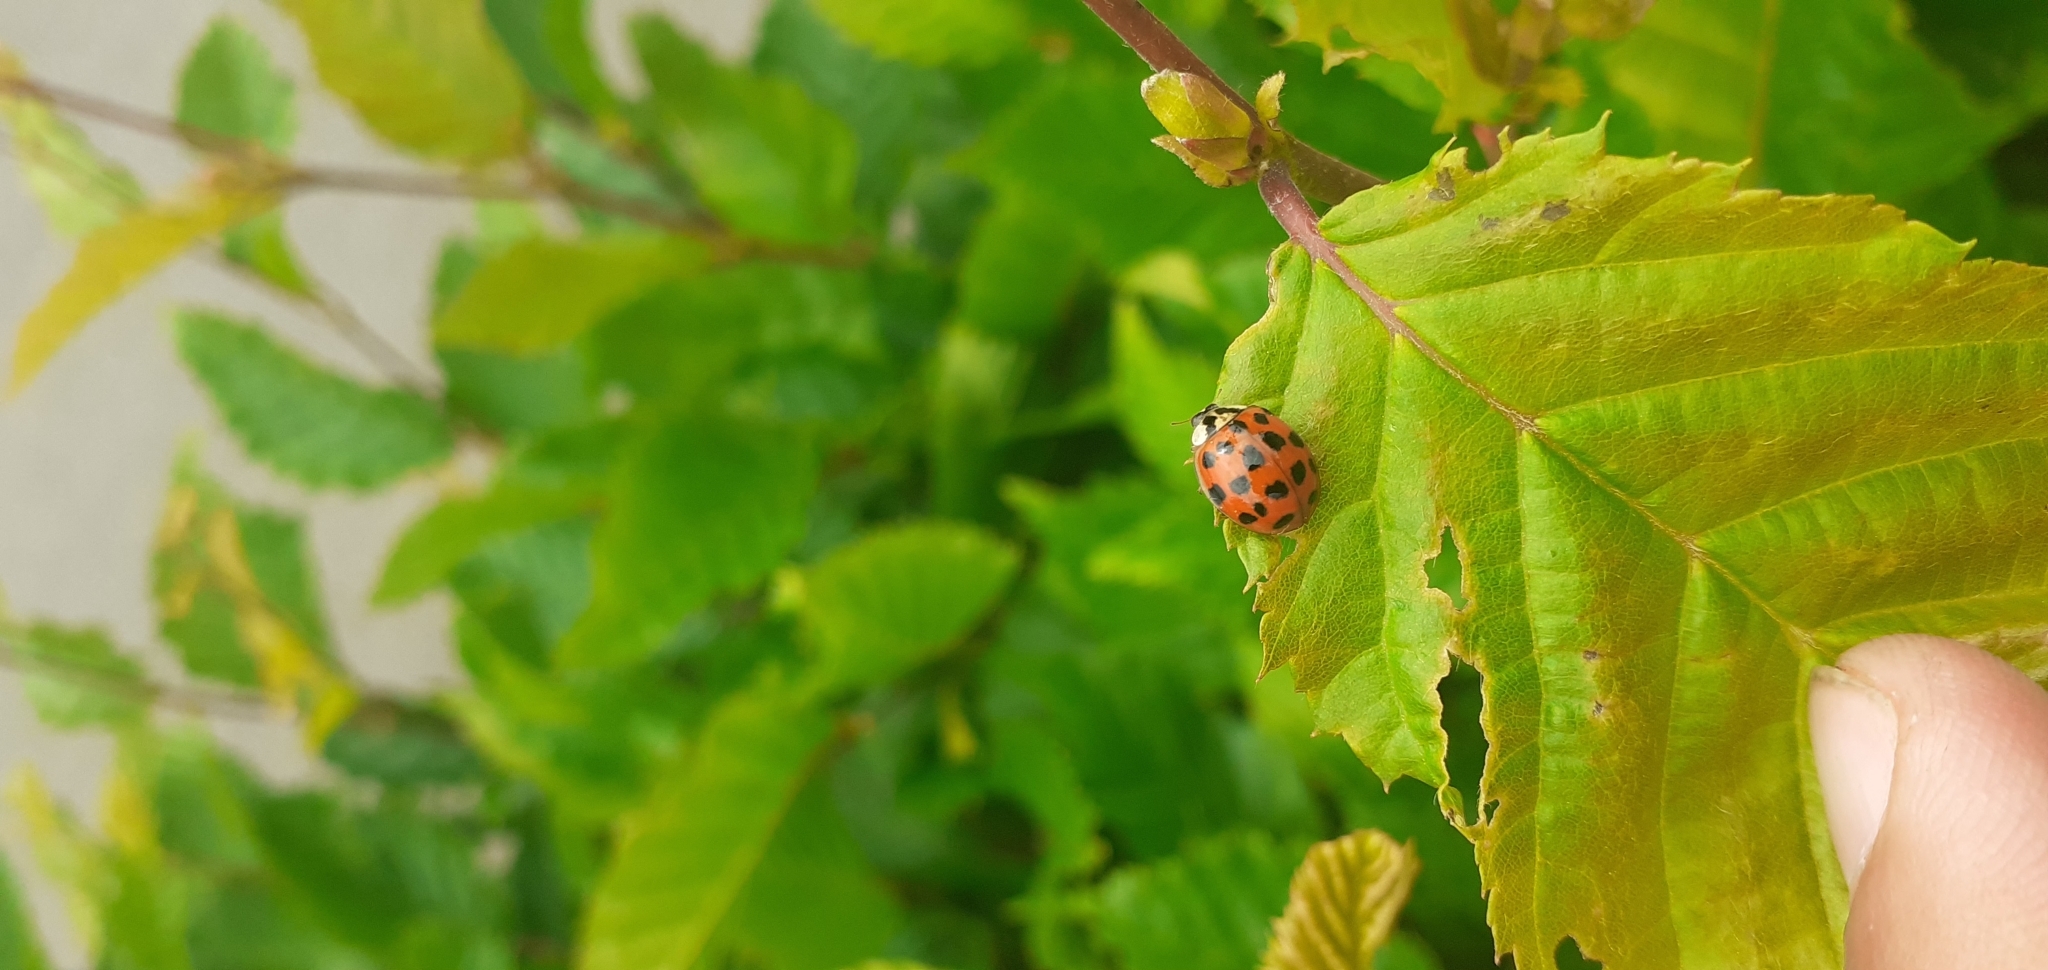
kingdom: Animalia
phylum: Arthropoda
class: Insecta
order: Coleoptera
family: Coccinellidae
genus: Harmonia
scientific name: Harmonia axyridis
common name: Harlequin ladybird
